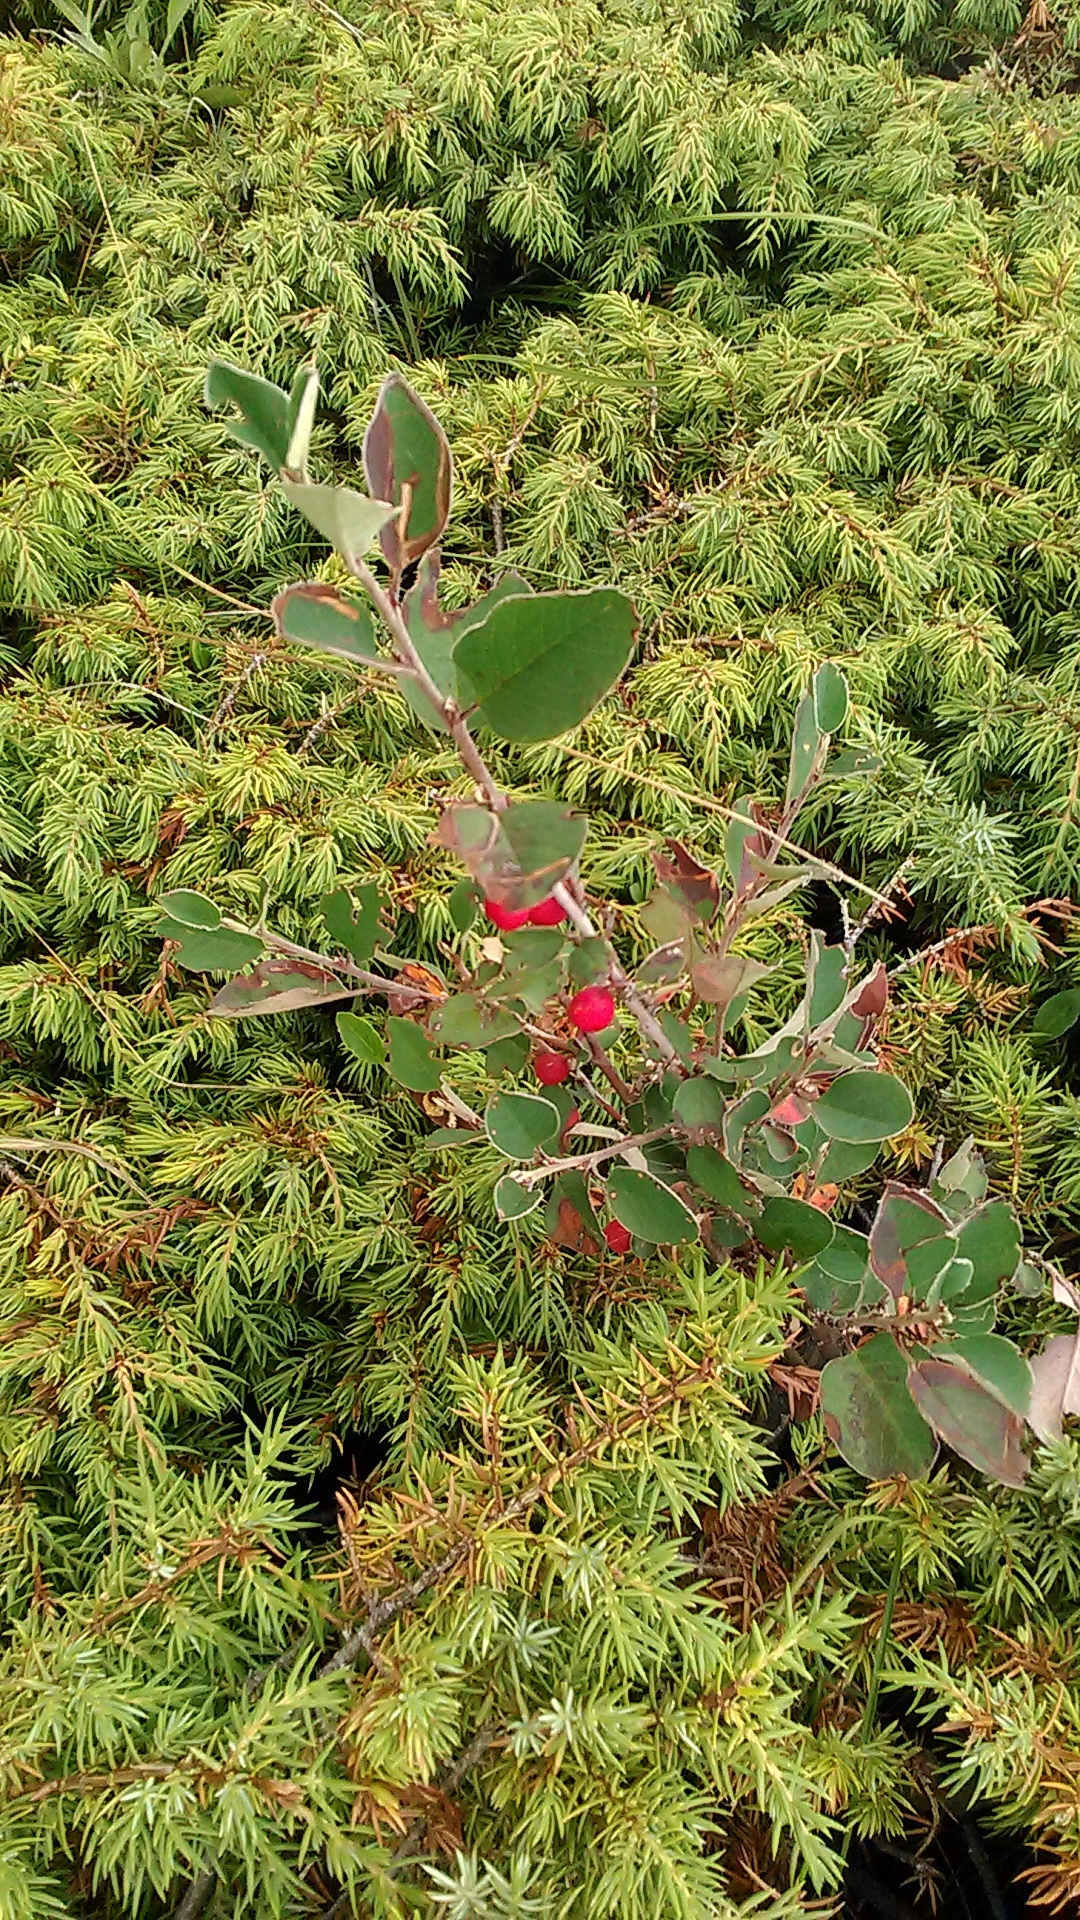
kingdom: Plantae
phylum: Tracheophyta
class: Magnoliopsida
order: Rosales
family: Rosaceae
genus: Cotoneaster
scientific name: Cotoneaster integerrimus
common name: Wild cotoneaster
